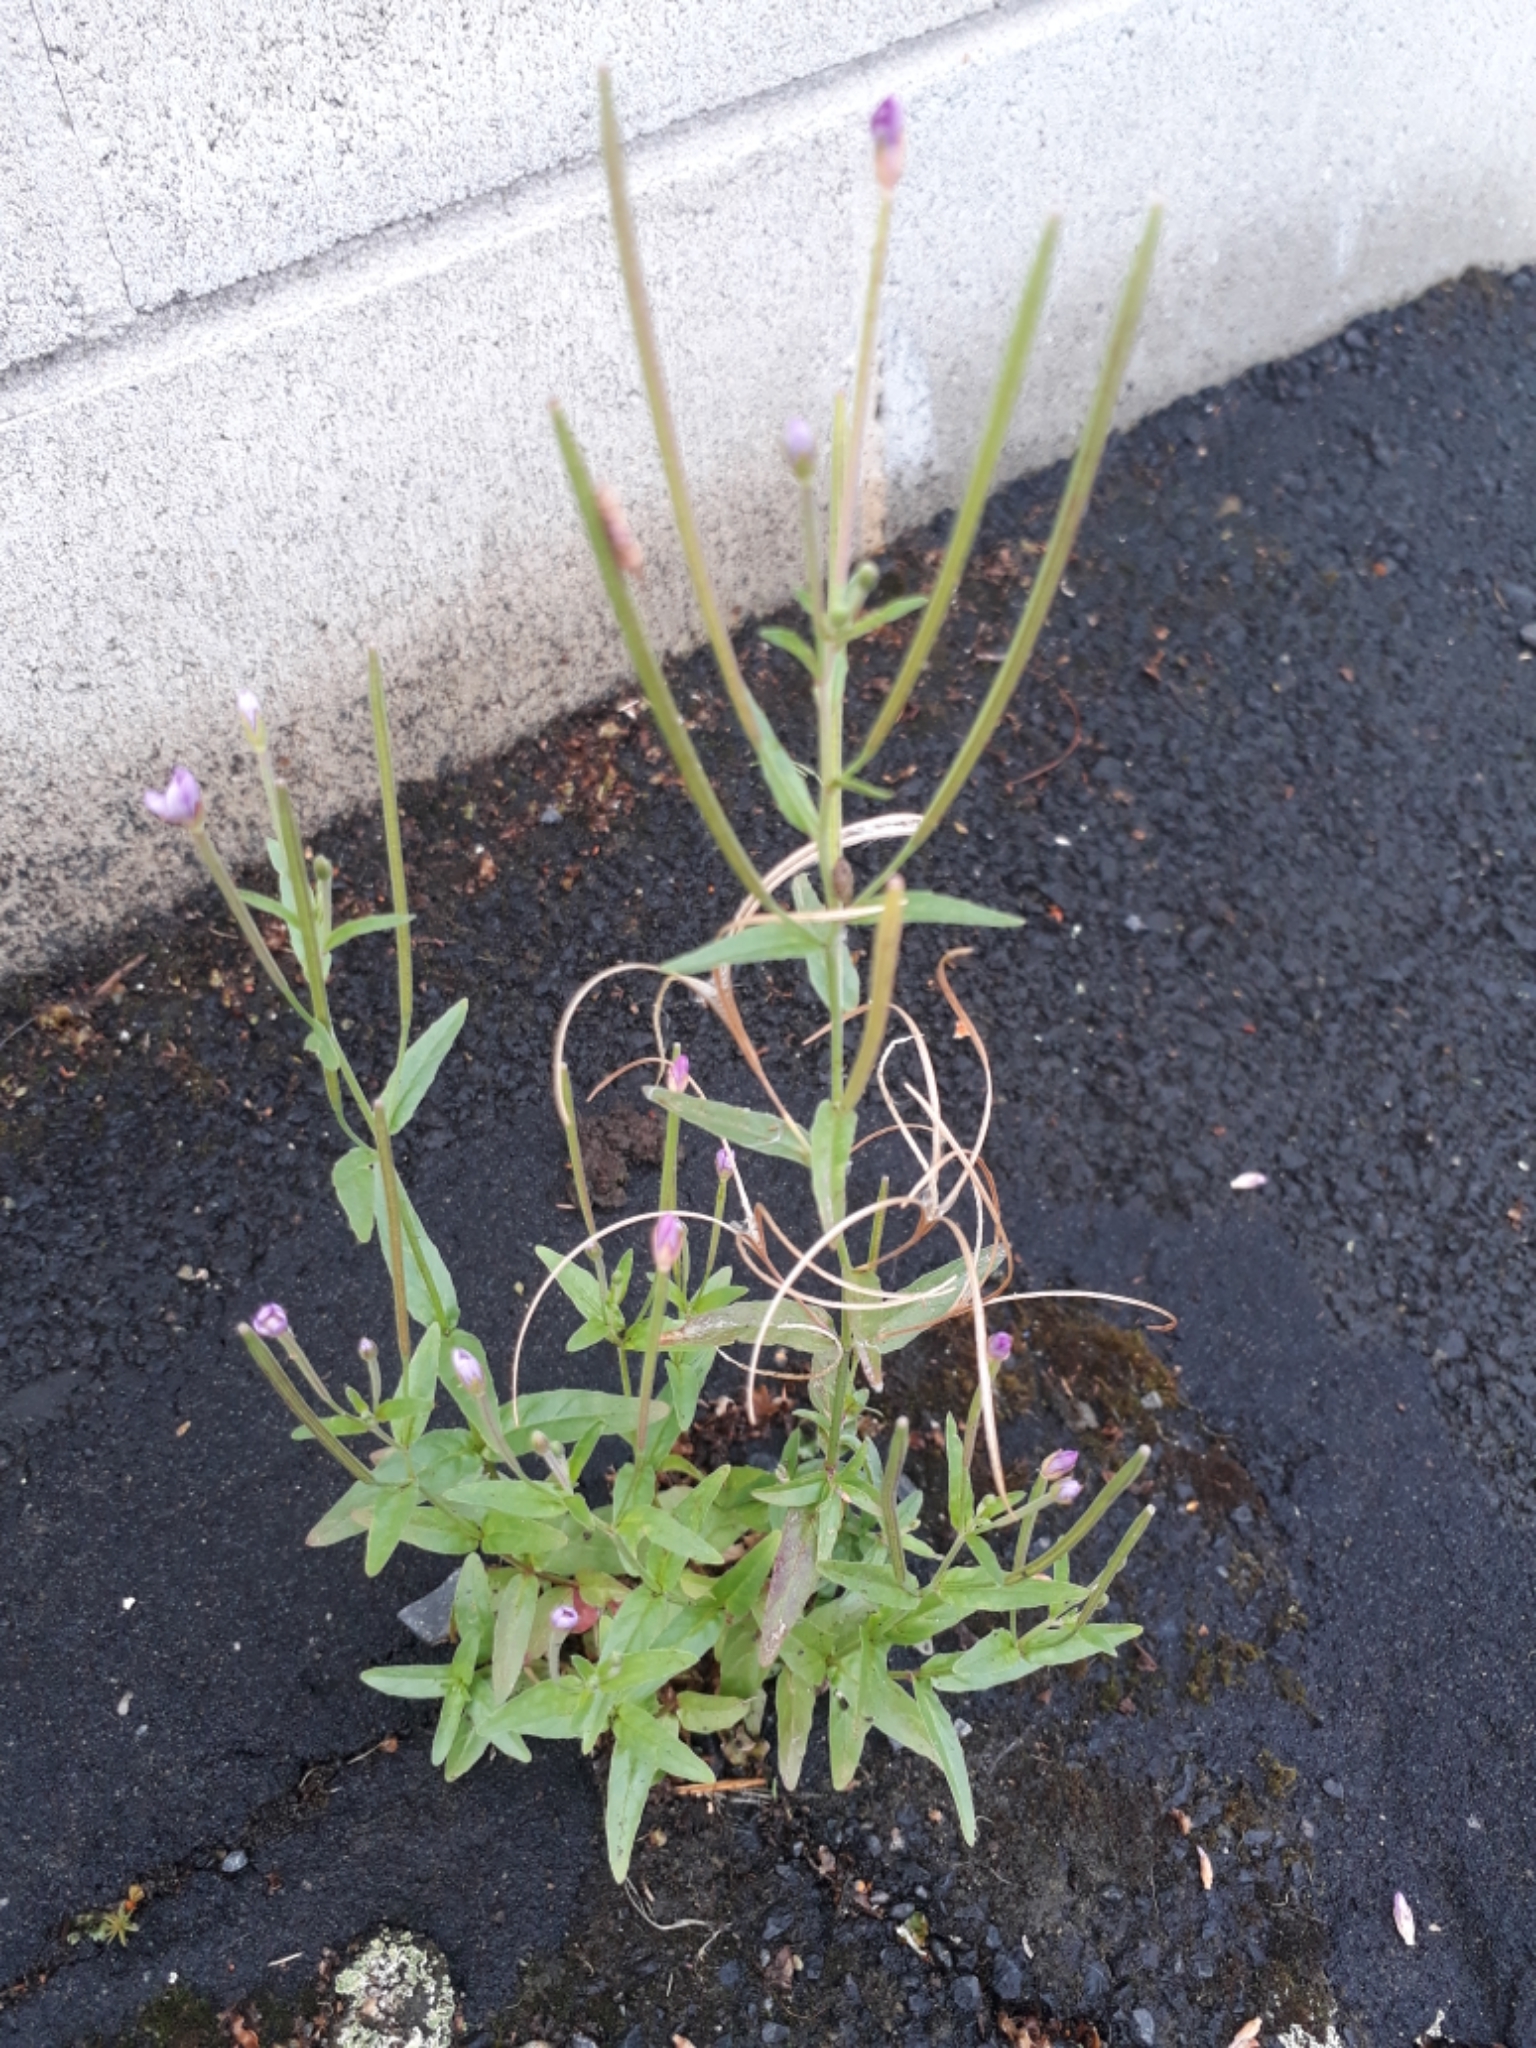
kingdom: Plantae
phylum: Tracheophyta
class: Magnoliopsida
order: Myrtales
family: Onagraceae
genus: Epilobium
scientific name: Epilobium ciliatum
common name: American willowherb
